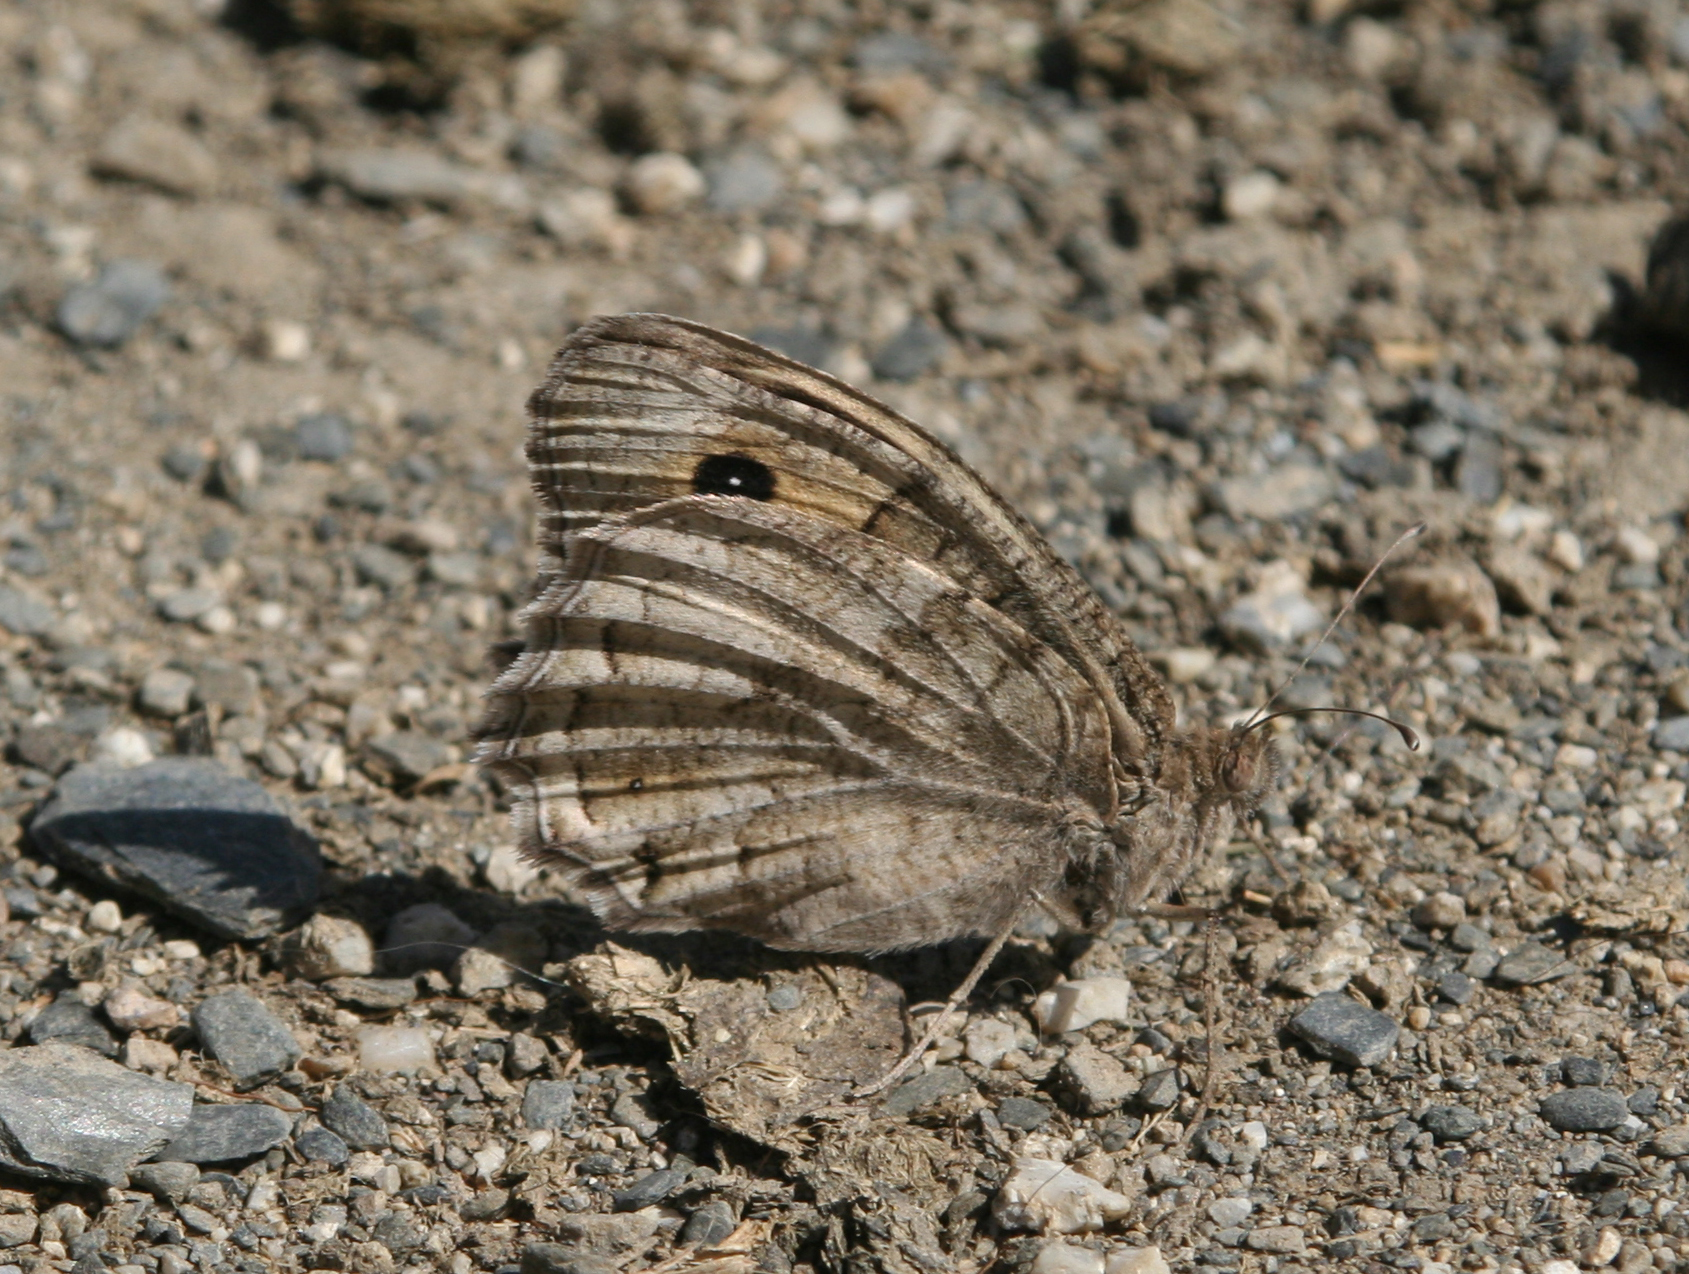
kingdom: Animalia
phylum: Arthropoda
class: Insecta
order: Lepidoptera
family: Nymphalidae
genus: Pseudochazara
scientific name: Pseudochazara thelephassa
